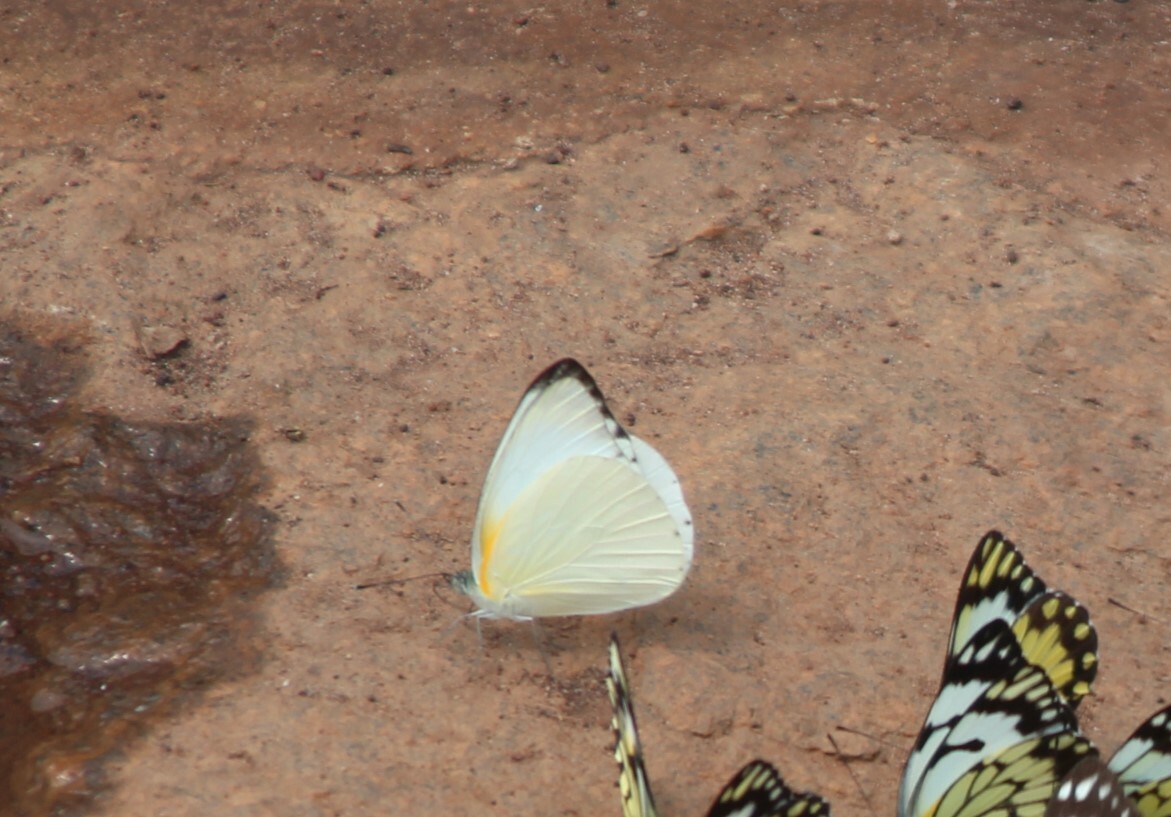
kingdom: Animalia
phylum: Arthropoda
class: Insecta
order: Lepidoptera
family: Pieridae
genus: Glutophrissa
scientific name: Glutophrissa epaphia
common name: African albatross
